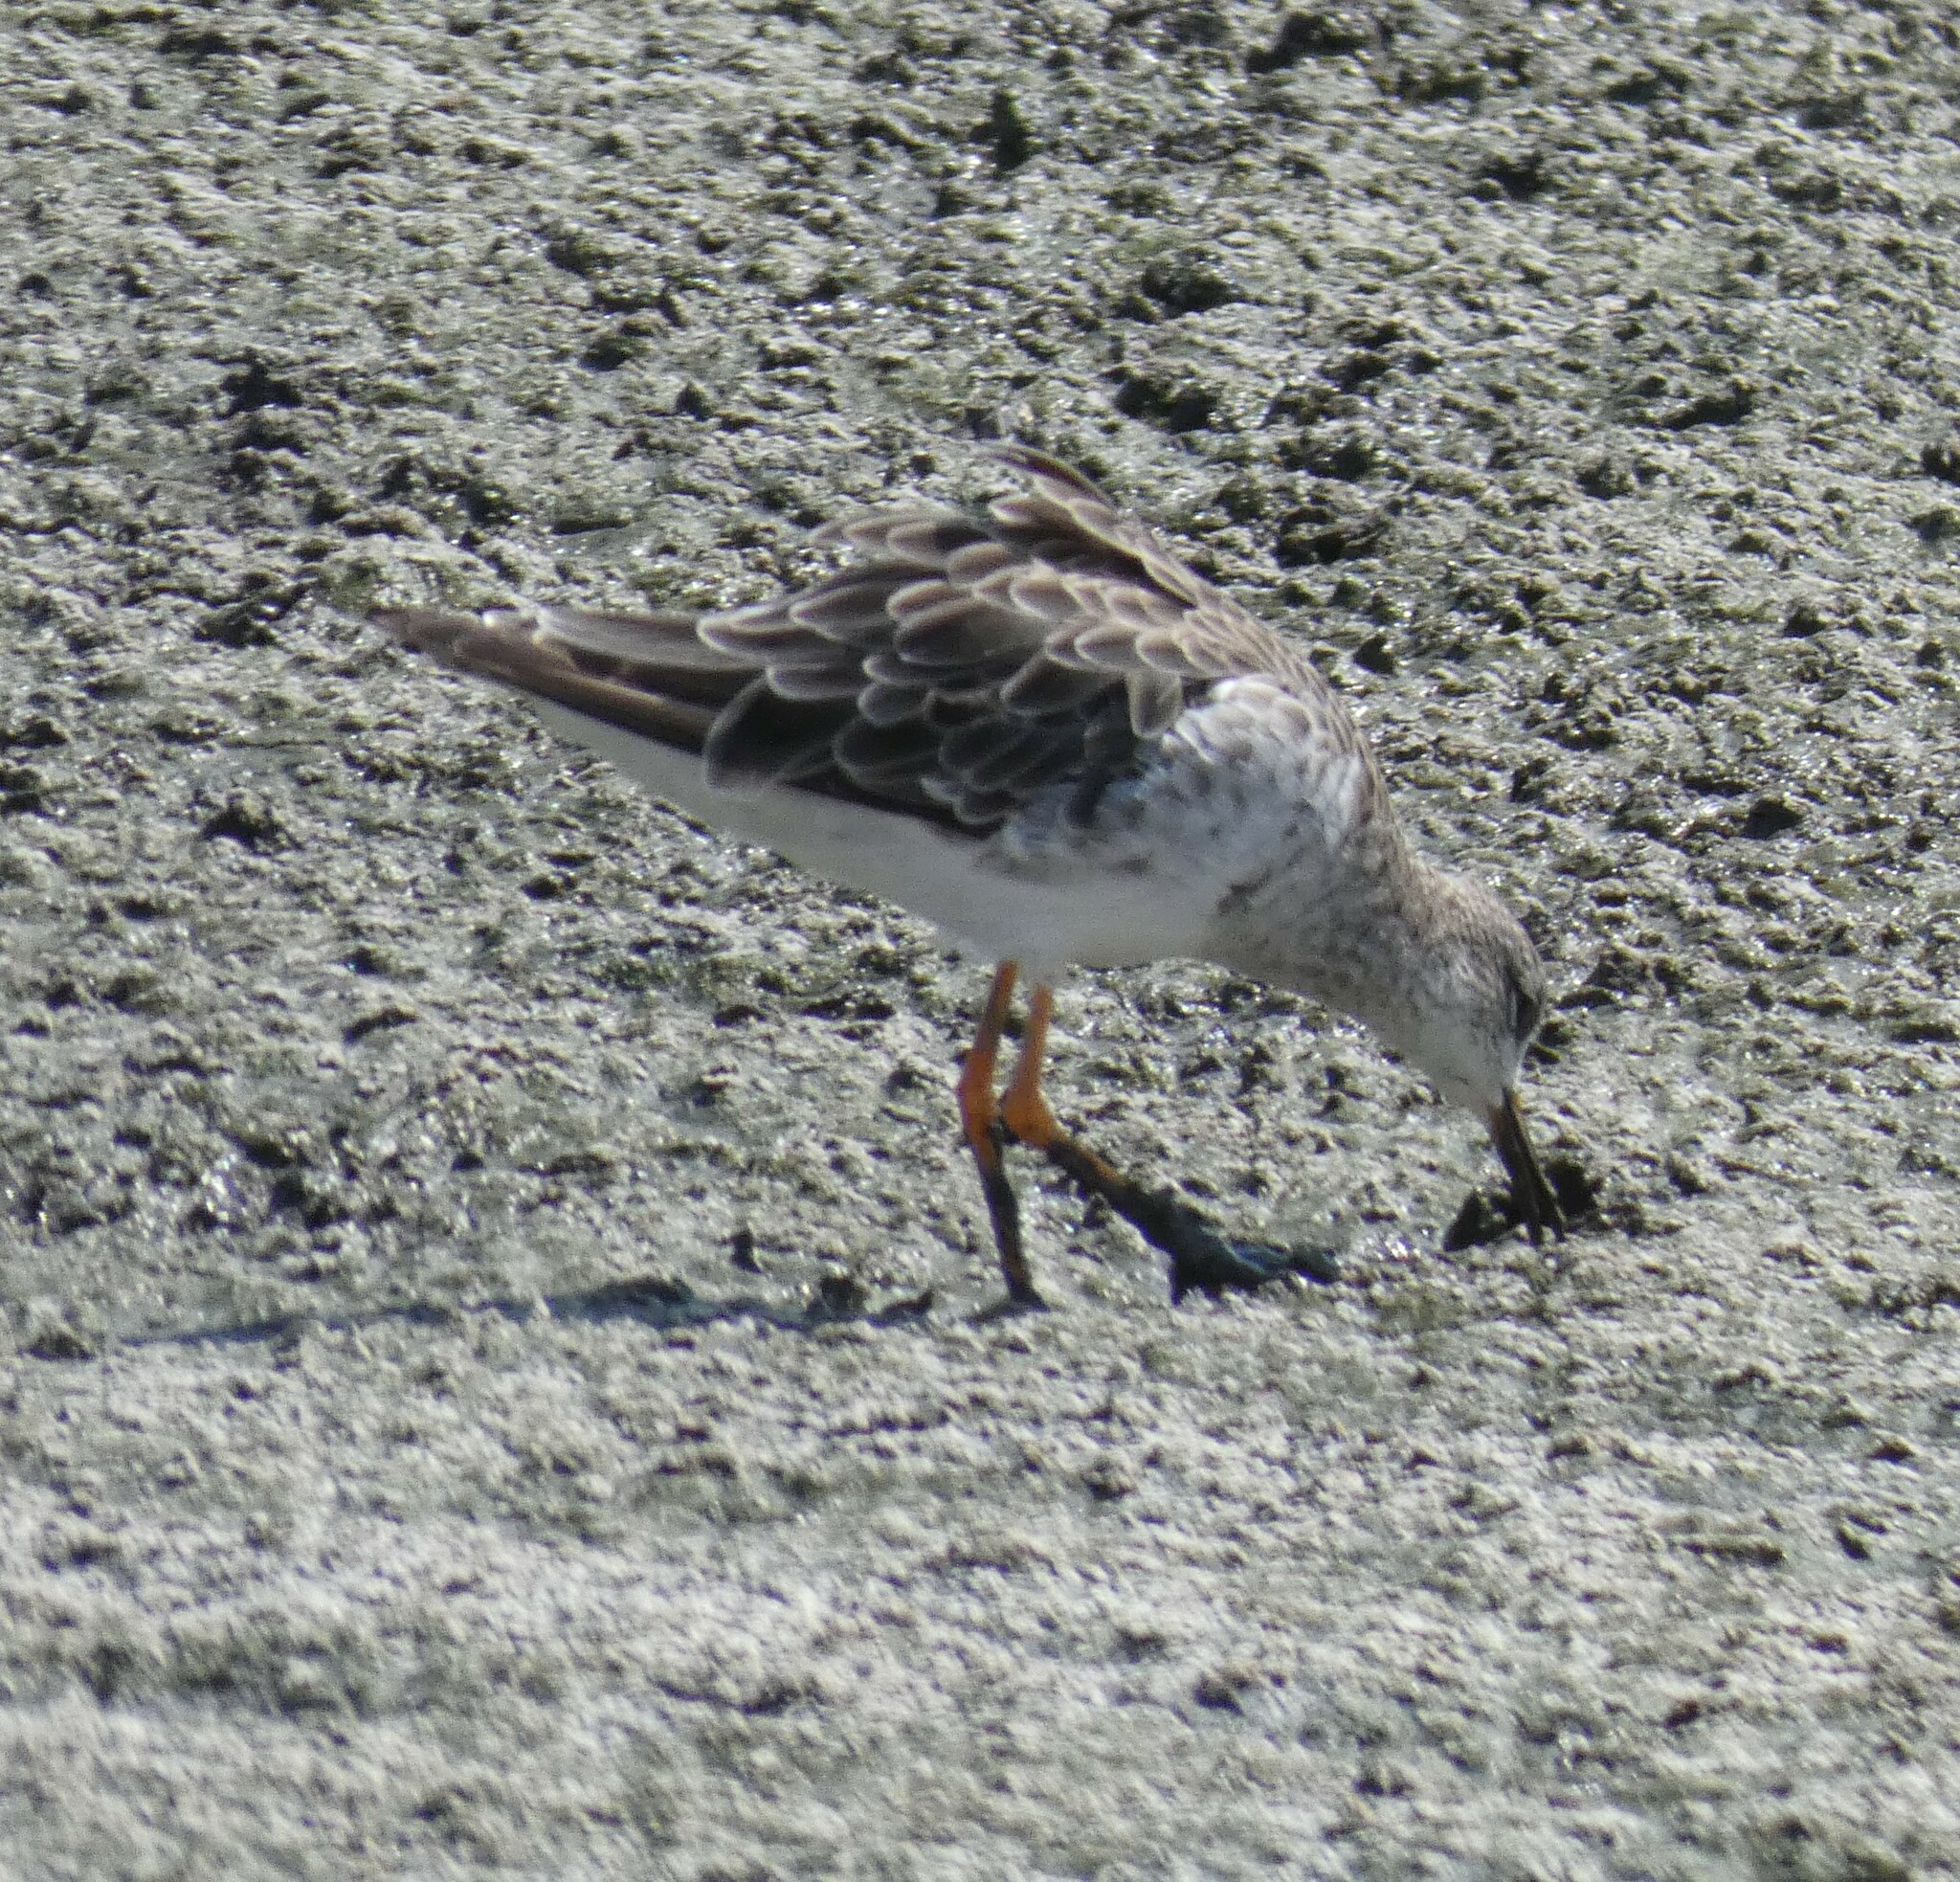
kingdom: Animalia
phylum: Chordata
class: Aves
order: Charadriiformes
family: Scolopacidae
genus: Calidris
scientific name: Calidris pugnax
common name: Ruff
